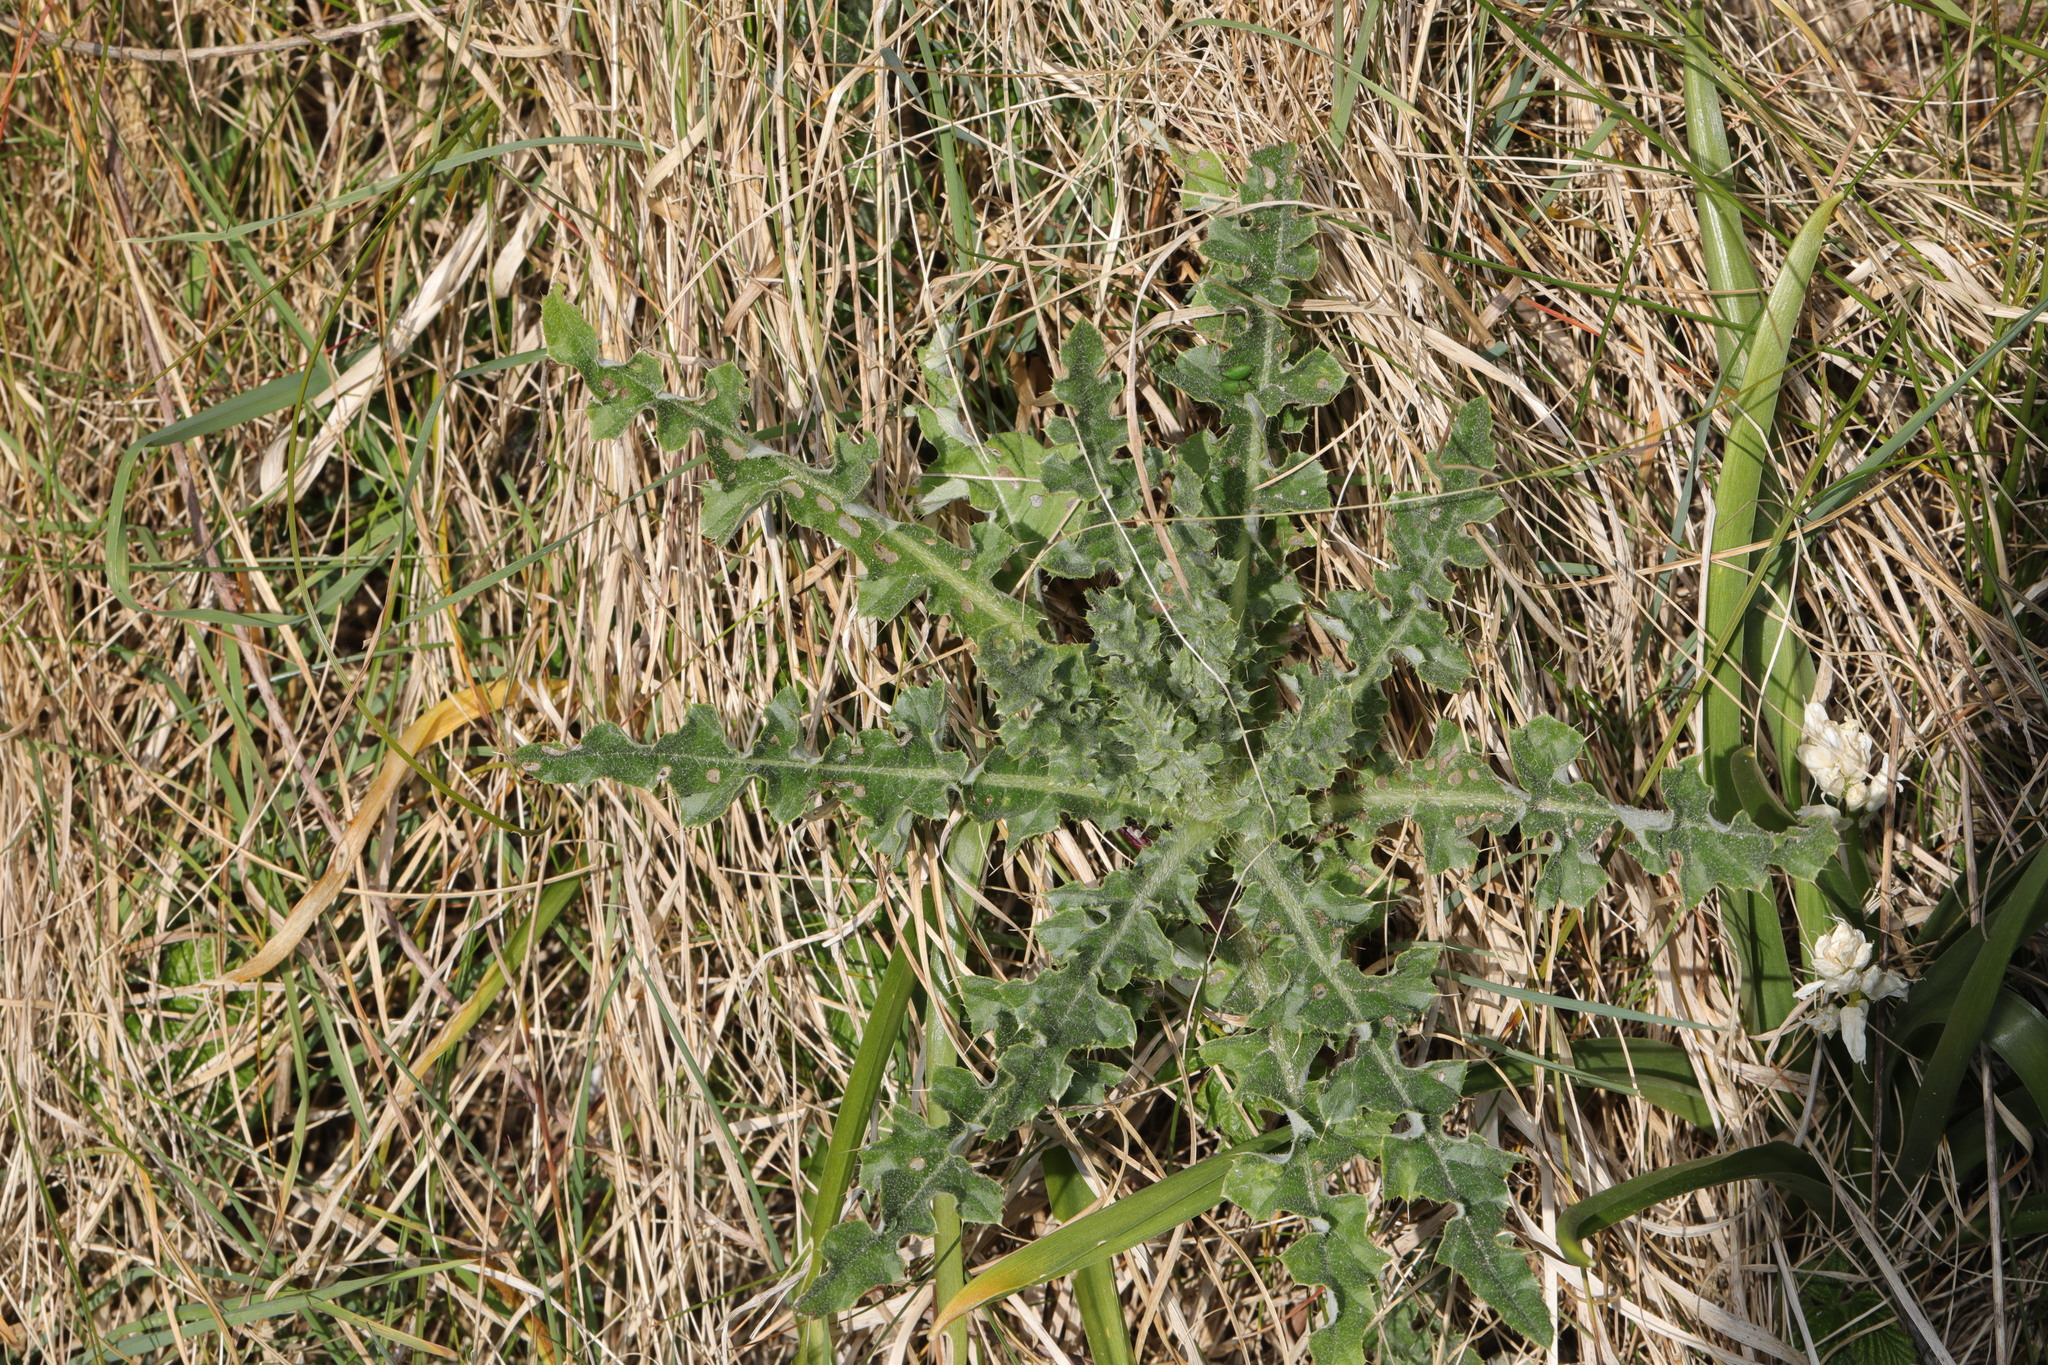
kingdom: Plantae
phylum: Tracheophyta
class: Magnoliopsida
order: Asterales
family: Asteraceae
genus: Cirsium
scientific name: Cirsium arvense
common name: Creeping thistle
